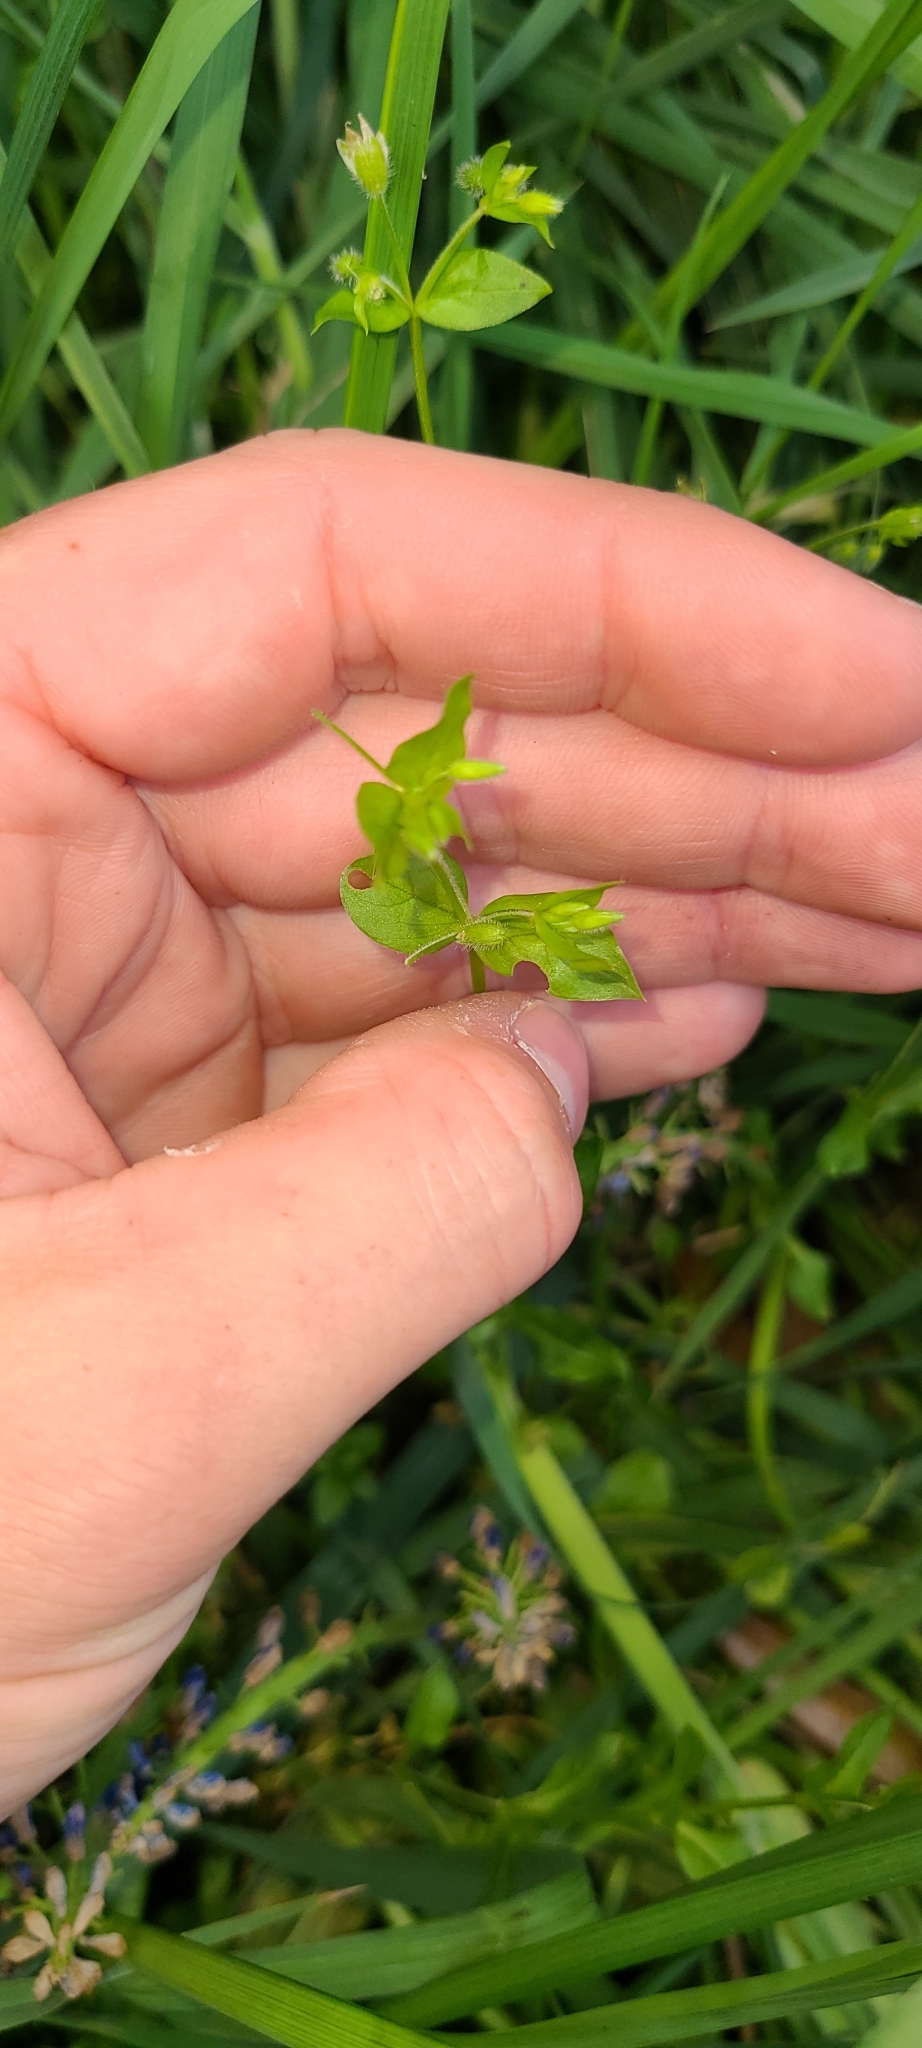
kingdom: Plantae
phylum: Tracheophyta
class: Magnoliopsida
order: Caryophyllales
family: Caryophyllaceae
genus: Stellaria
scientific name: Stellaria media
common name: Common chickweed
